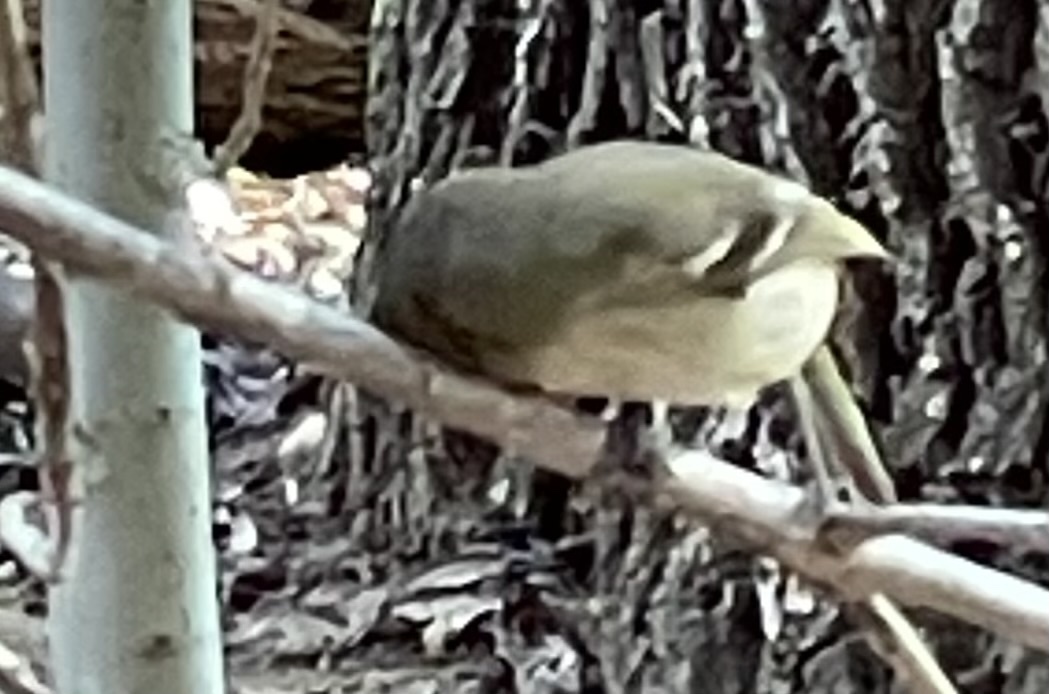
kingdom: Animalia
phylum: Chordata
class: Aves
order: Passeriformes
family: Vireonidae
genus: Vireo
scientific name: Vireo huttoni
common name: Hutton's vireo
